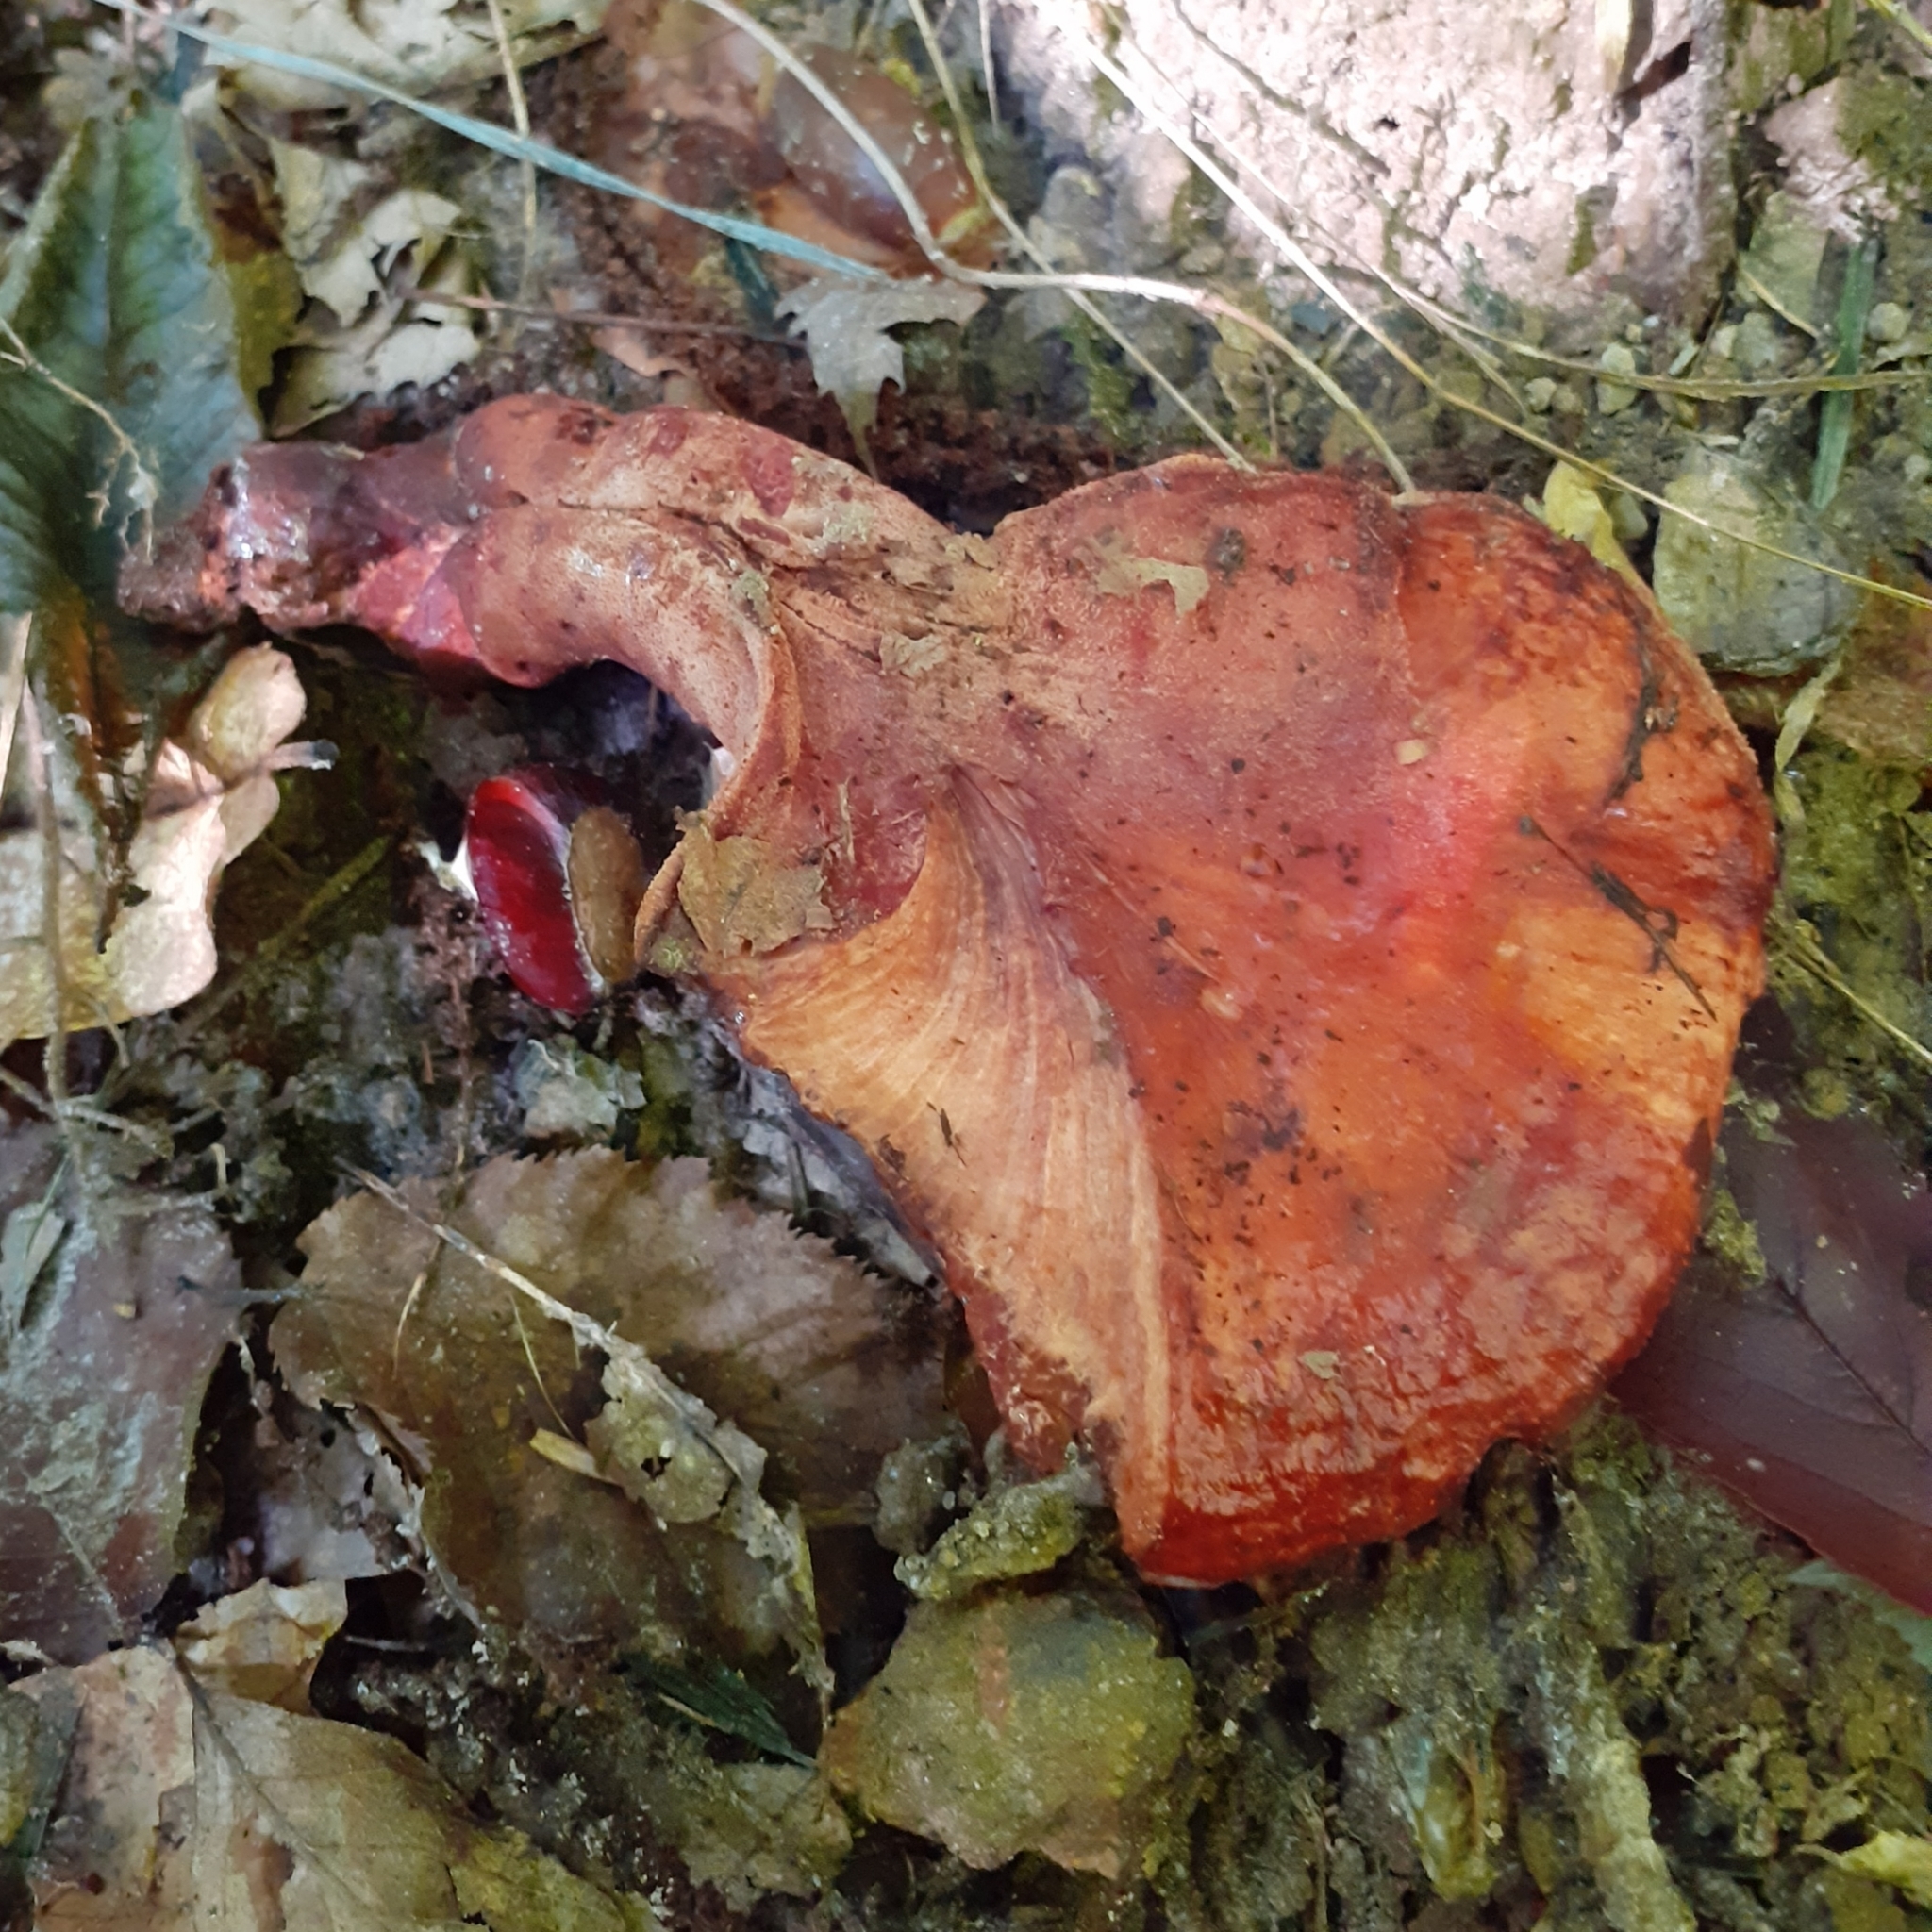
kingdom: Fungi
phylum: Basidiomycota
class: Agaricomycetes
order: Agaricales
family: Fistulinaceae
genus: Fistulina
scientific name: Fistulina hepatica
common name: Beef-steak fungus
